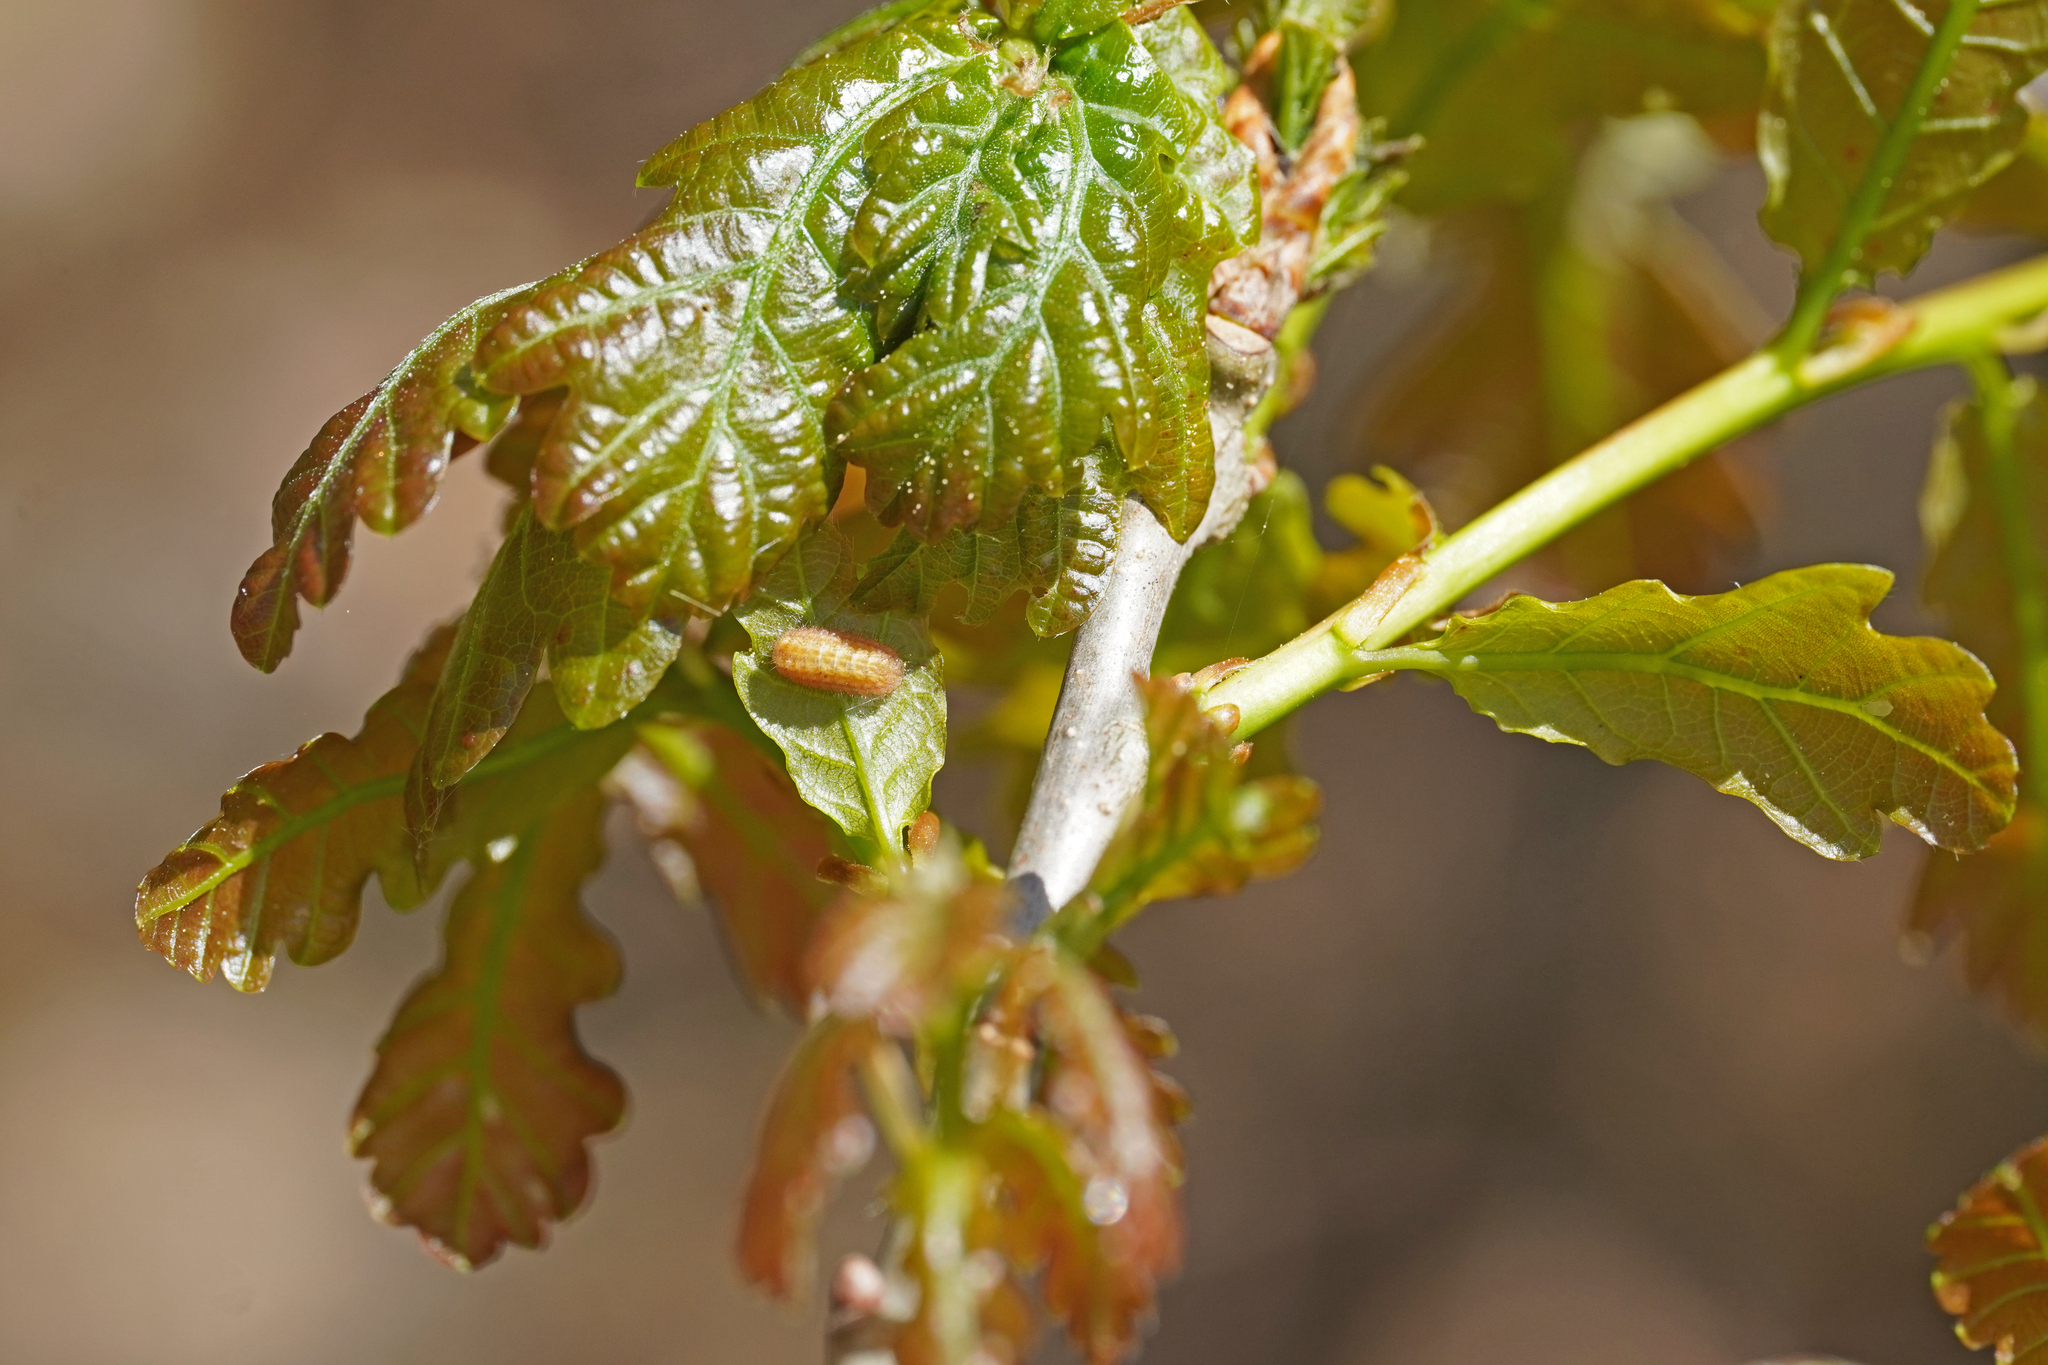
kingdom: Animalia
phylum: Arthropoda
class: Insecta
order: Lepidoptera
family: Lycaenidae
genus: Nordmannia
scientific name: Nordmannia ilicis
